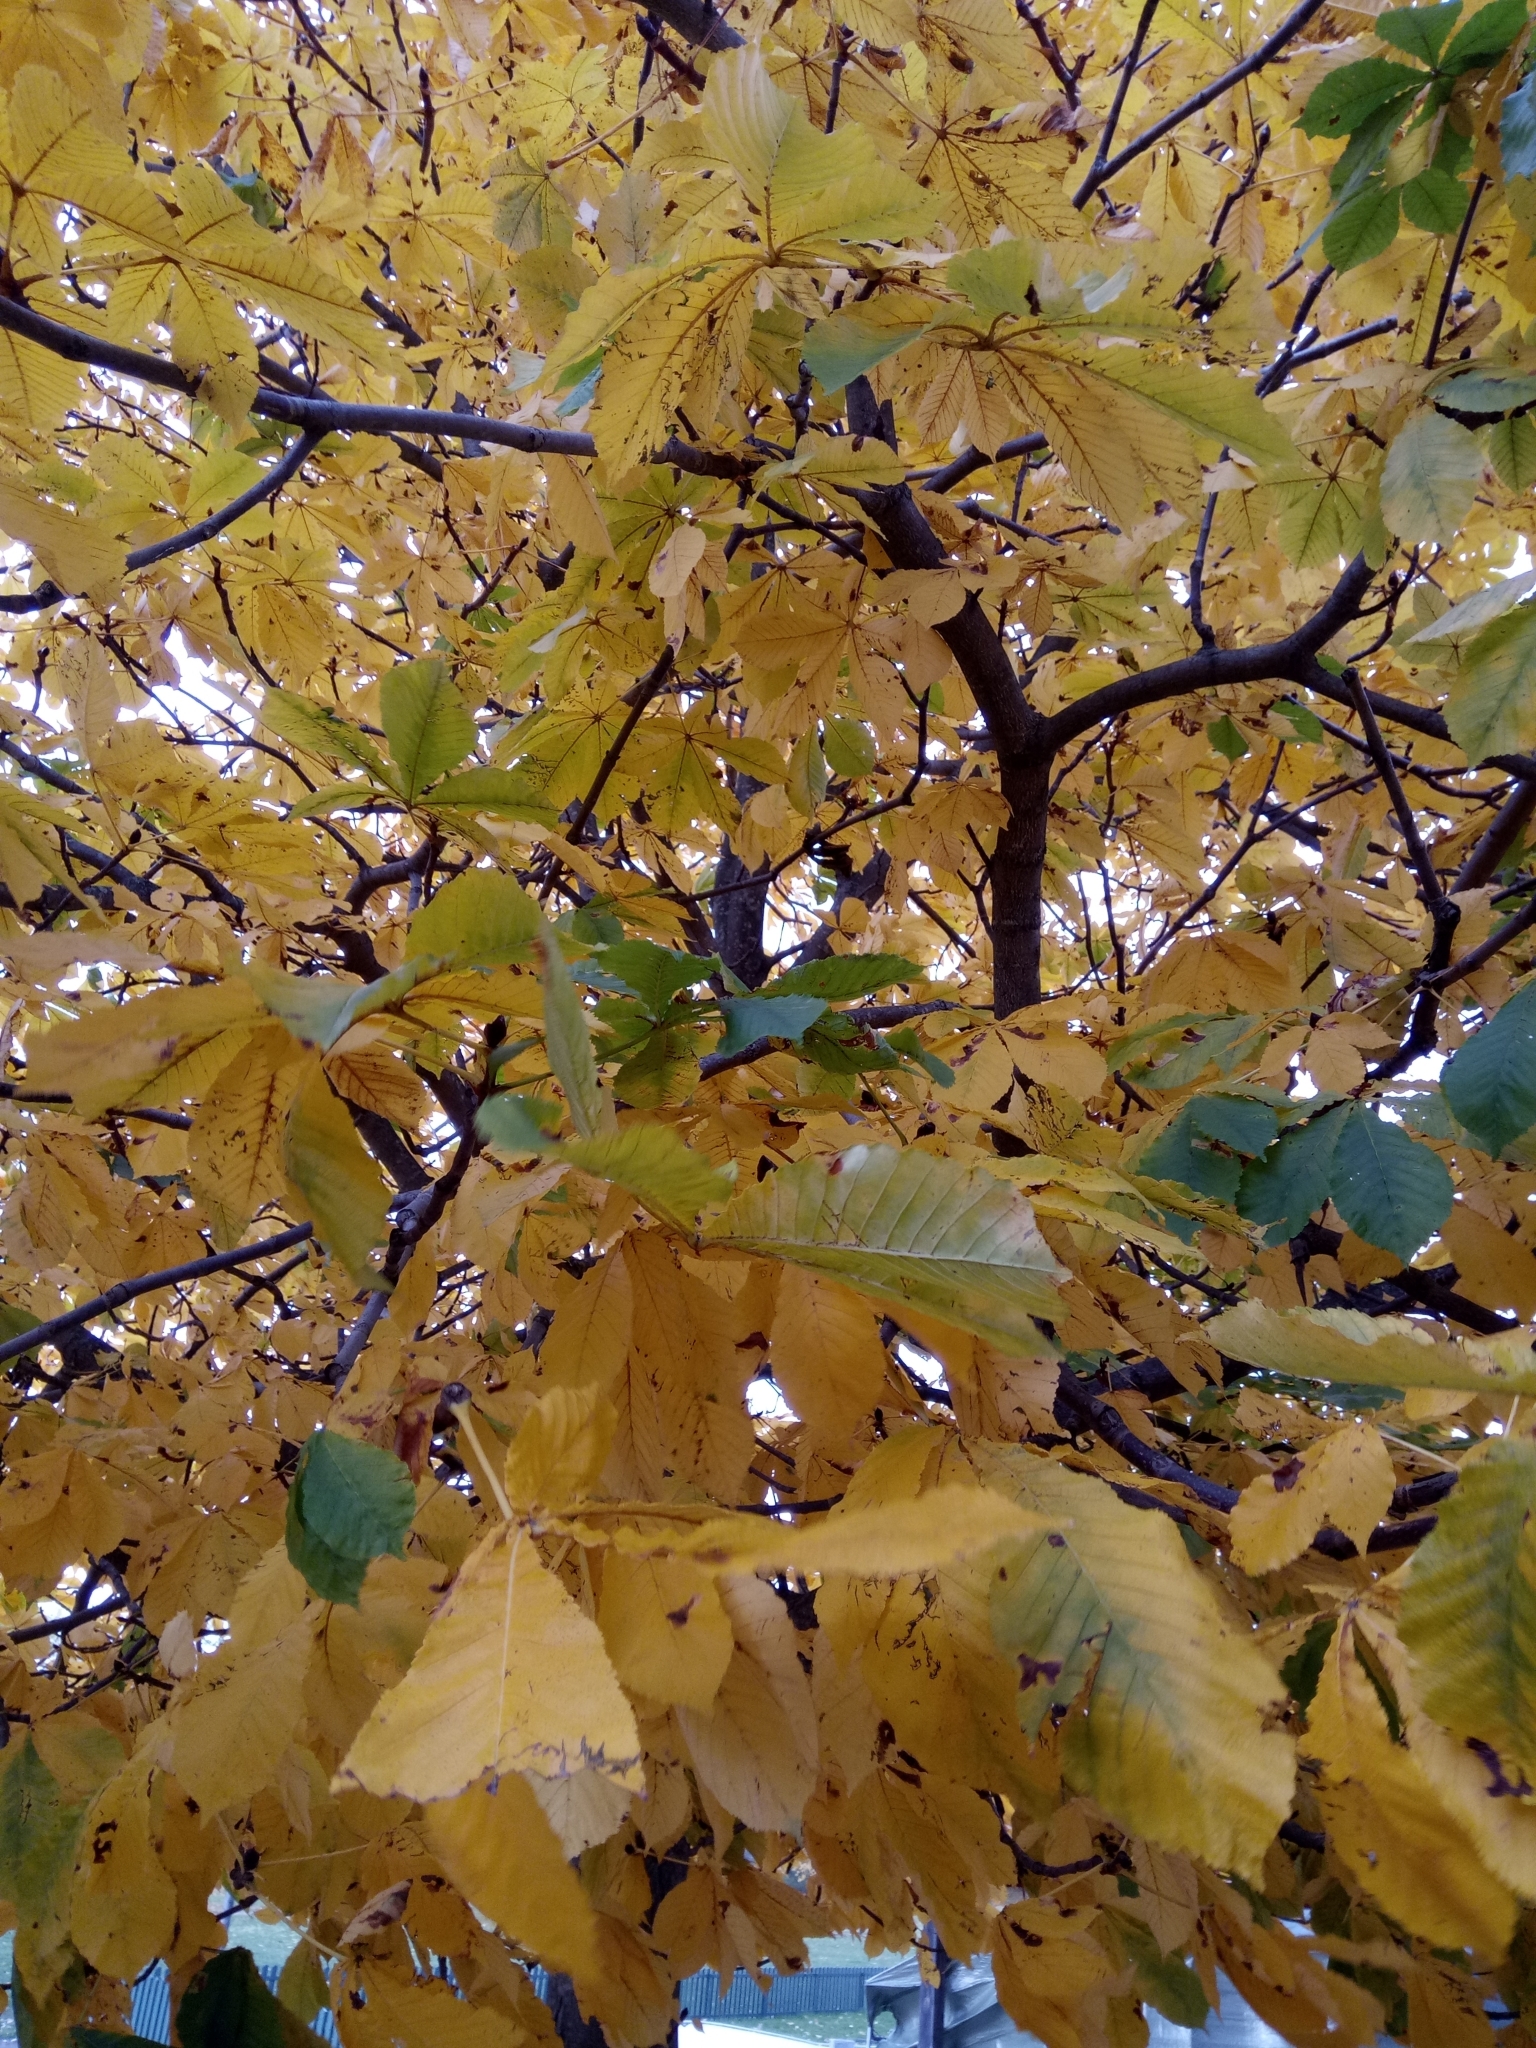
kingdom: Plantae
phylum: Tracheophyta
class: Magnoliopsida
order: Sapindales
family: Sapindaceae
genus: Aesculus
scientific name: Aesculus hippocastanum
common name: Horse-chestnut
